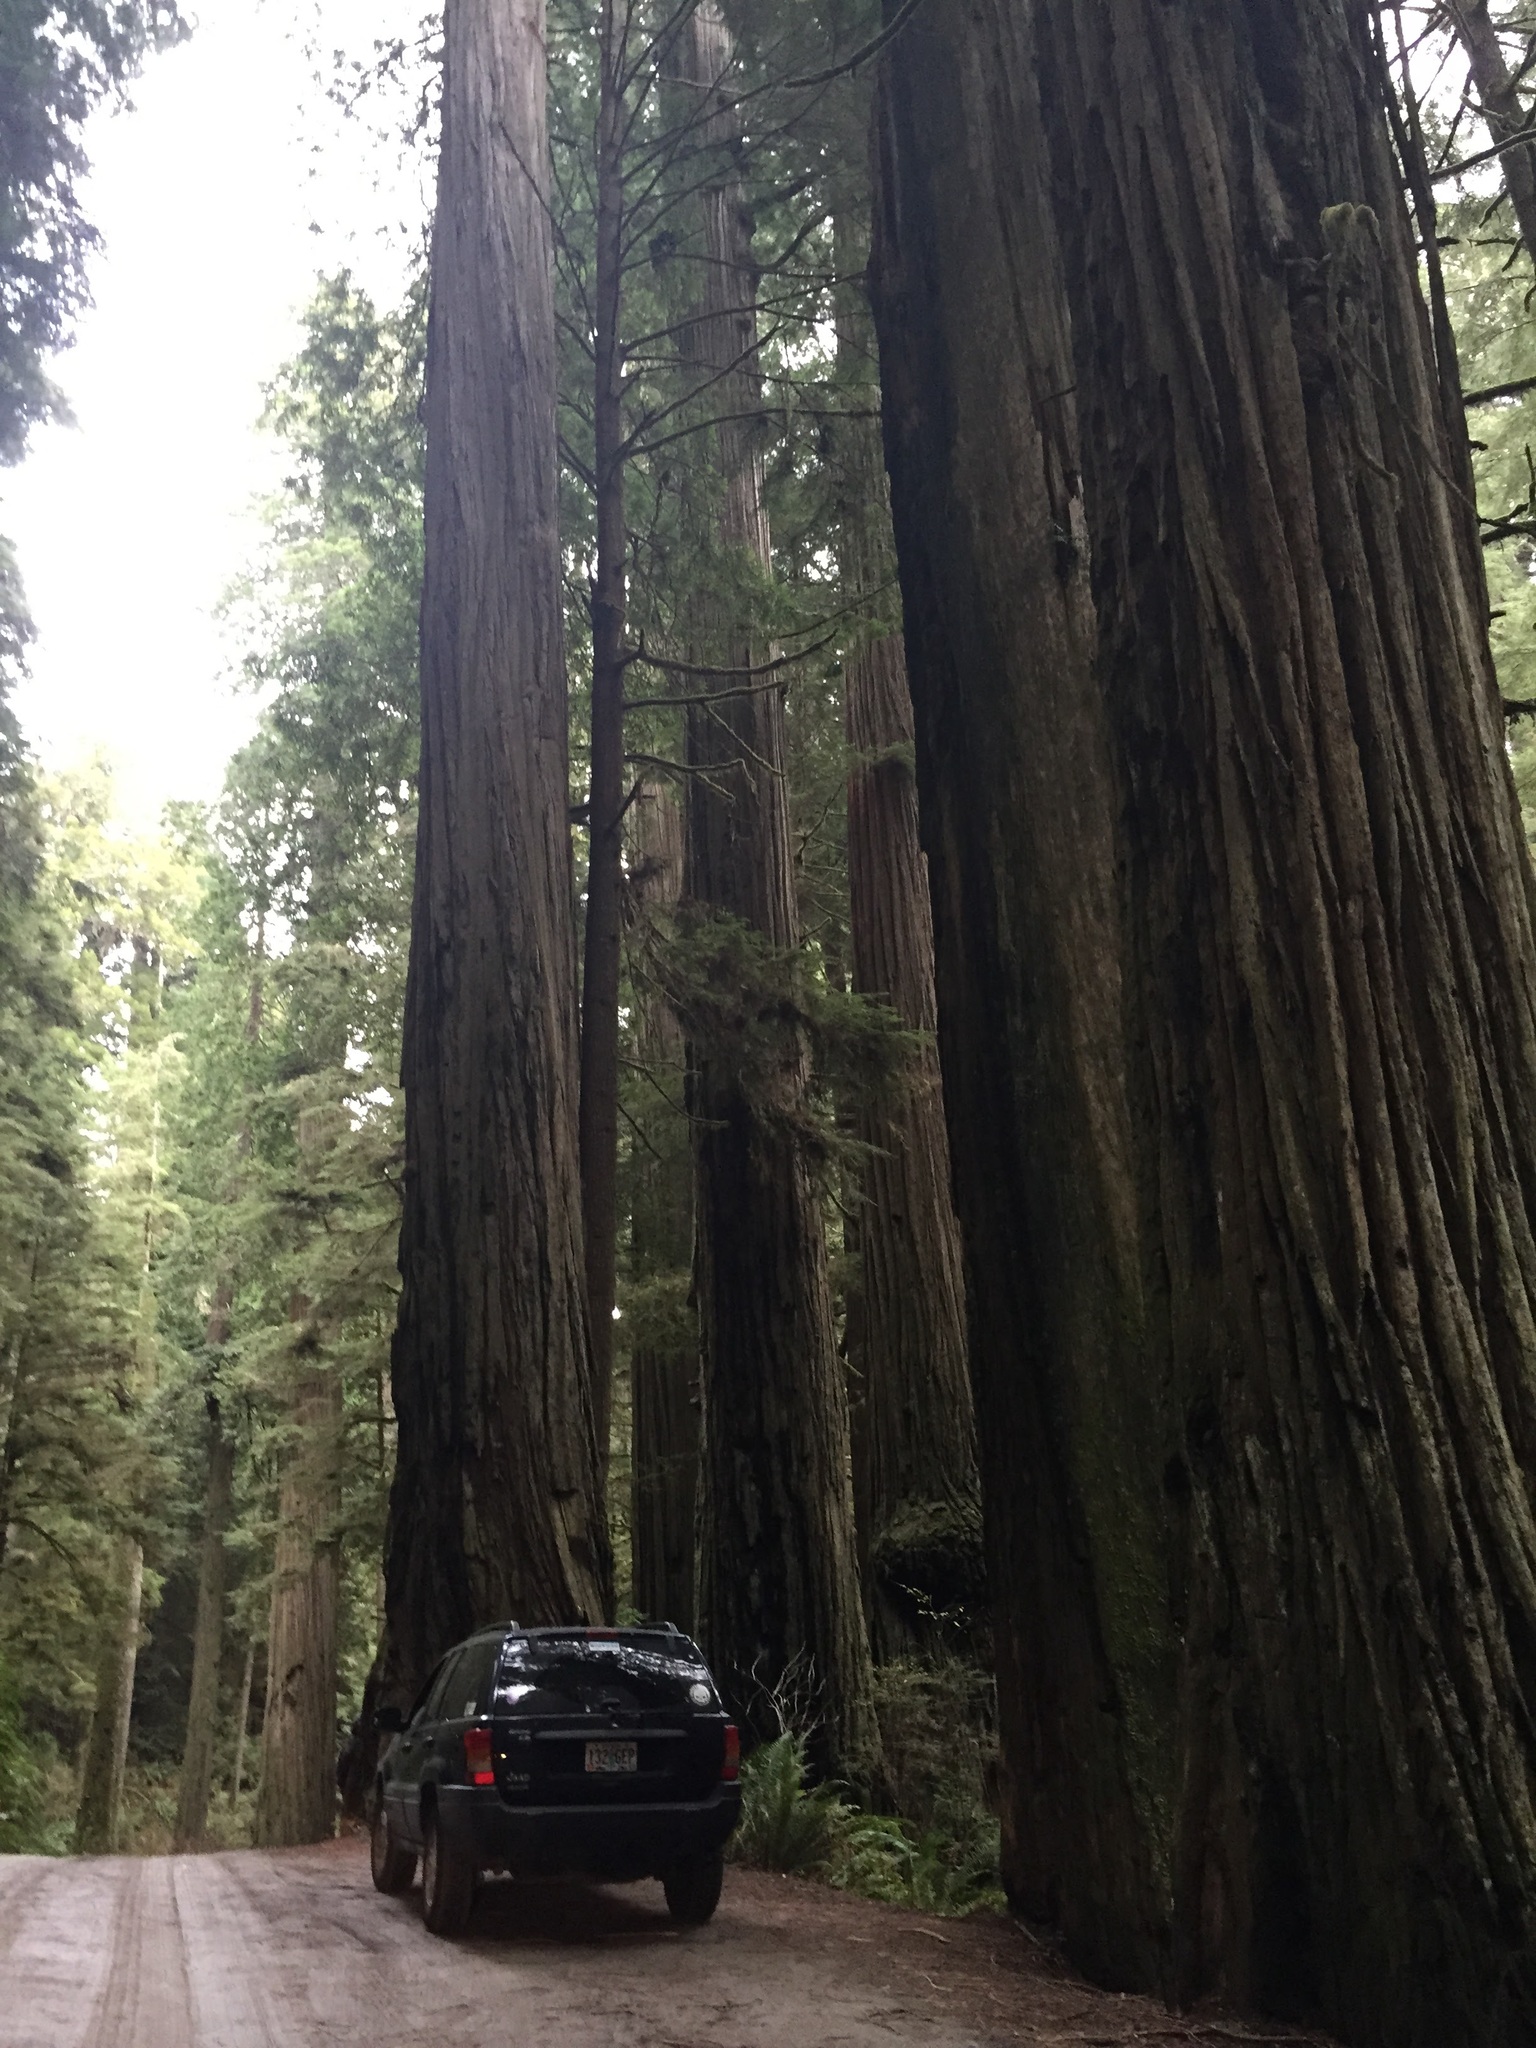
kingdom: Plantae
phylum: Tracheophyta
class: Pinopsida
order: Pinales
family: Cupressaceae
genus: Sequoia
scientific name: Sequoia sempervirens
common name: Coast redwood
